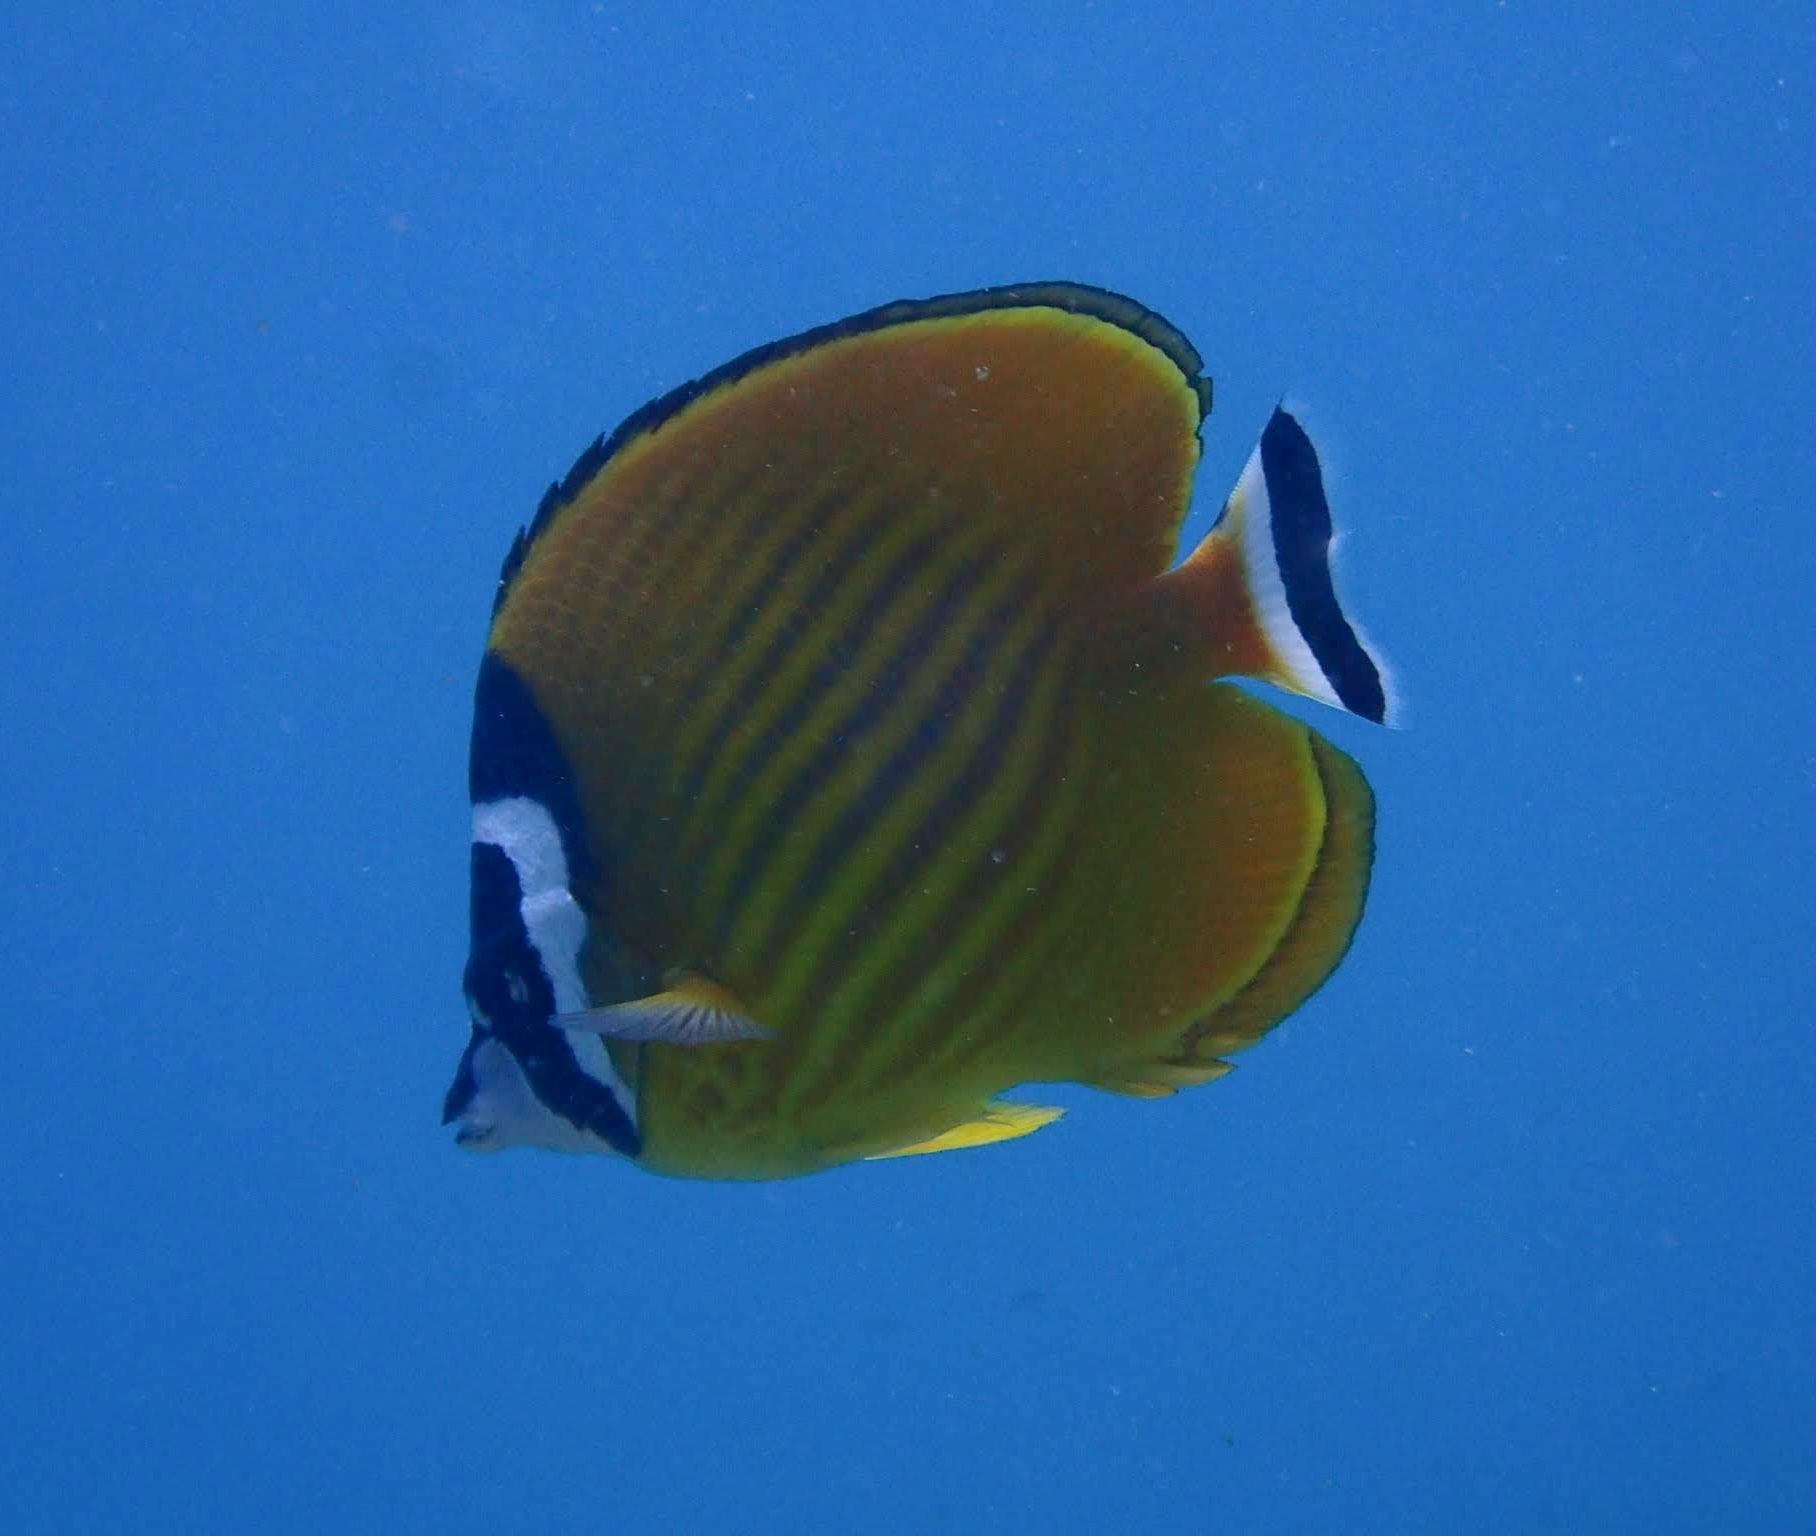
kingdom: Animalia
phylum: Chordata
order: Perciformes
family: Chaetodontidae
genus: Chaetodon
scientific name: Chaetodon wiebeli
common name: Butterflyfish
